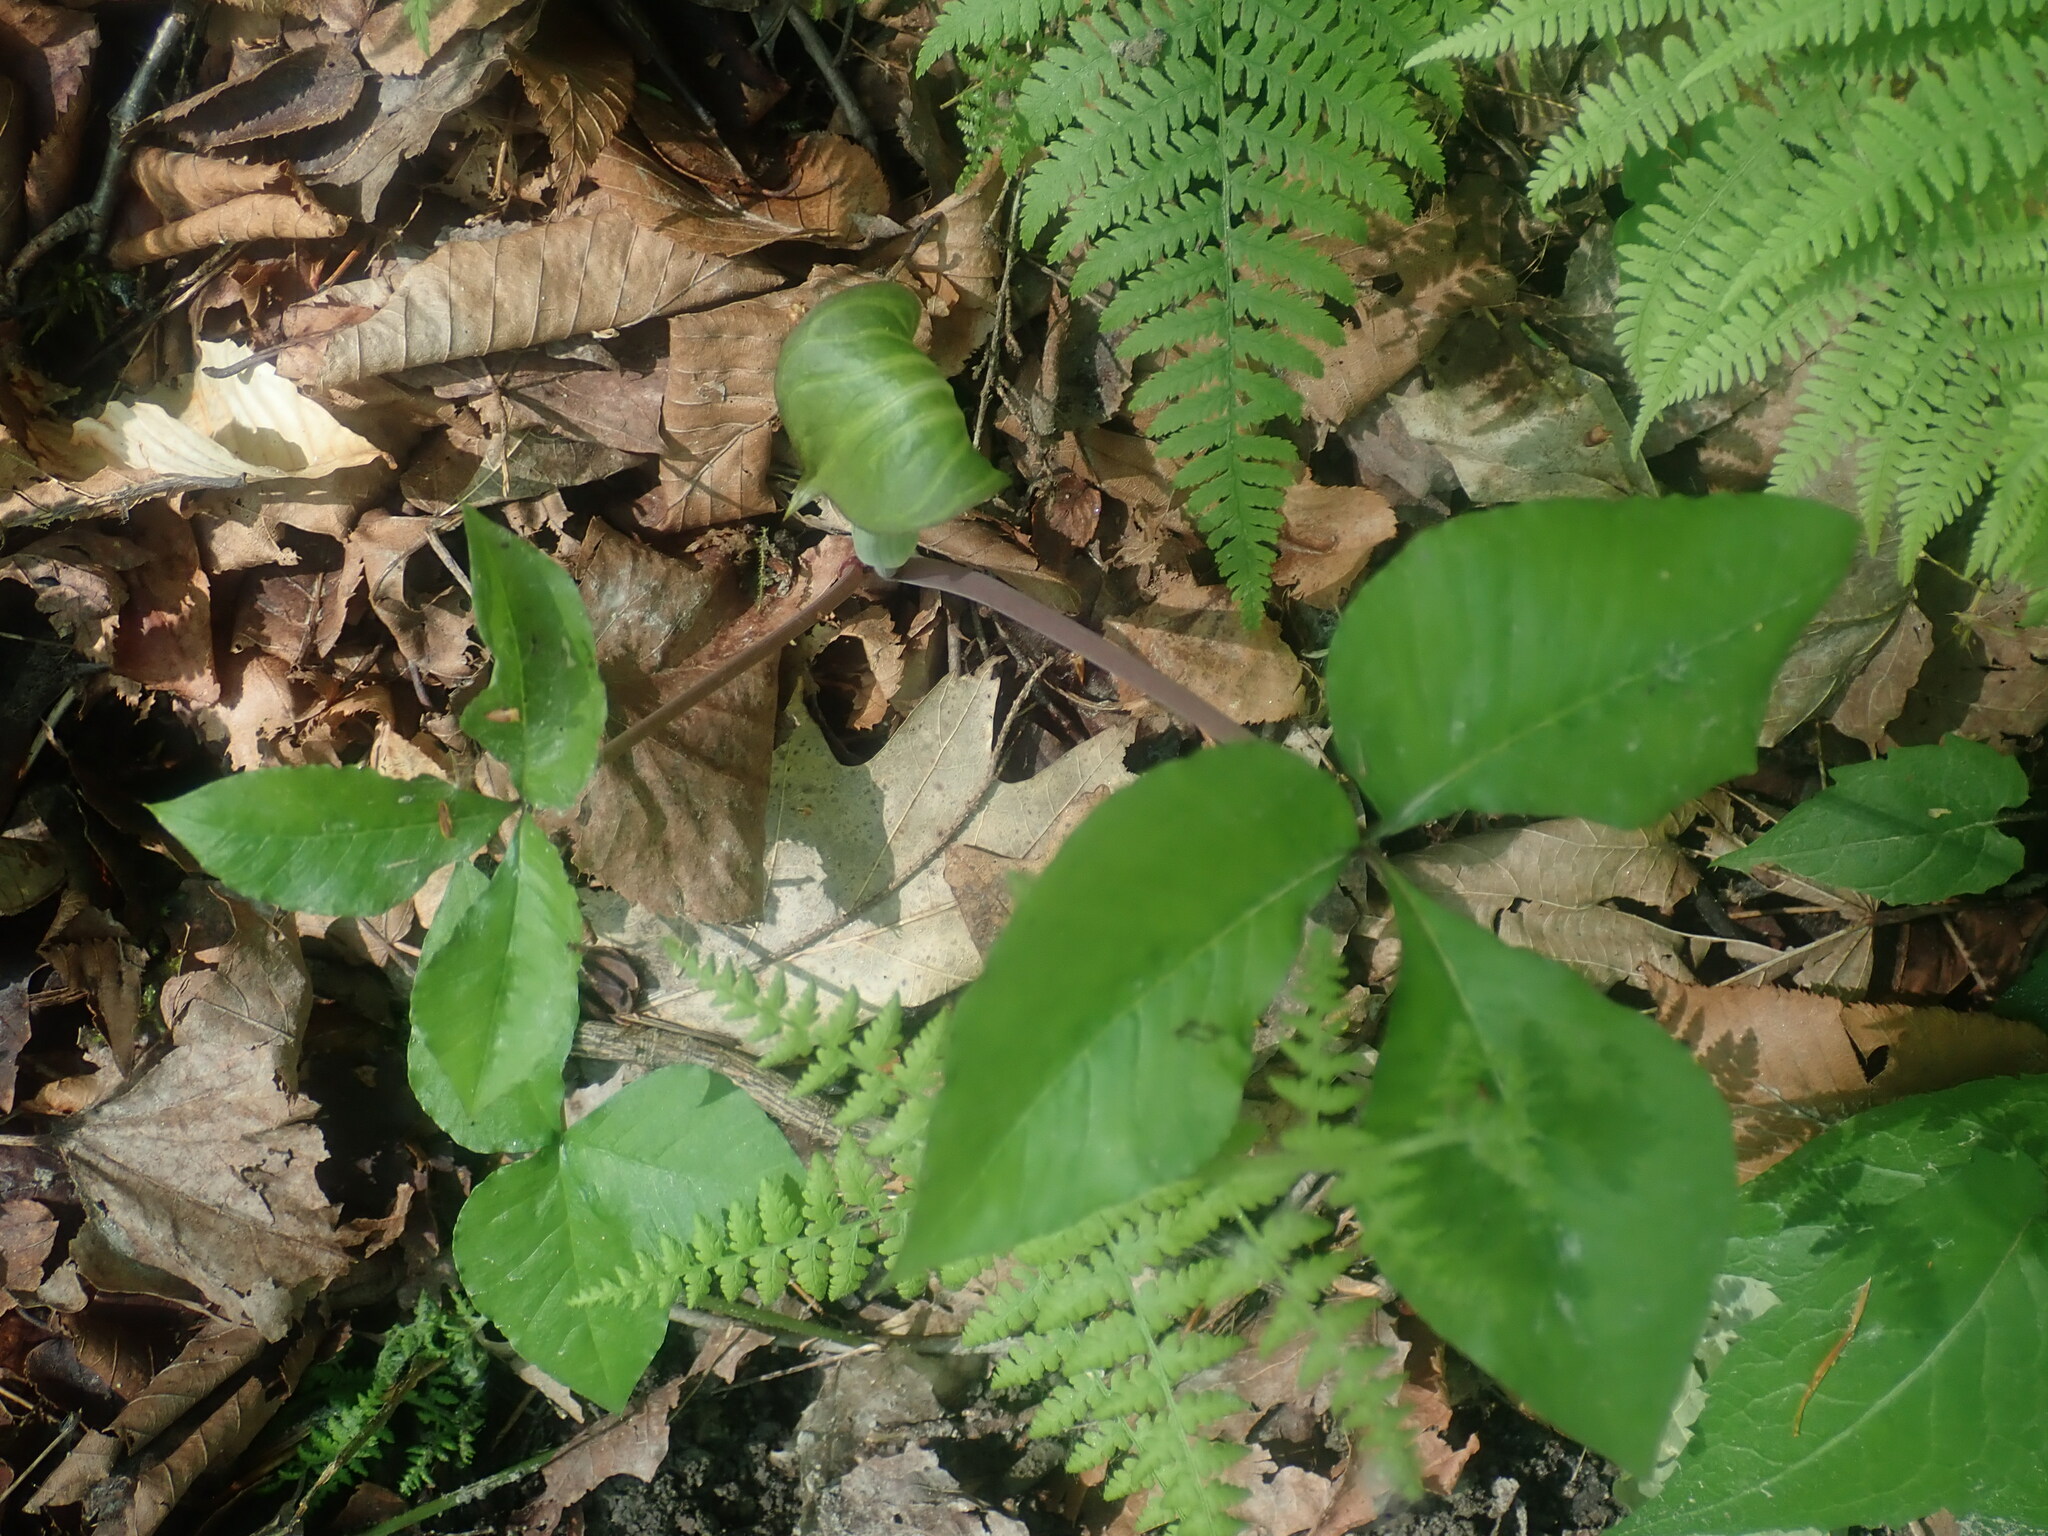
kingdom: Plantae
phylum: Tracheophyta
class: Liliopsida
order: Alismatales
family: Araceae
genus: Arisaema
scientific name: Arisaema triphyllum
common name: Jack-in-the-pulpit
